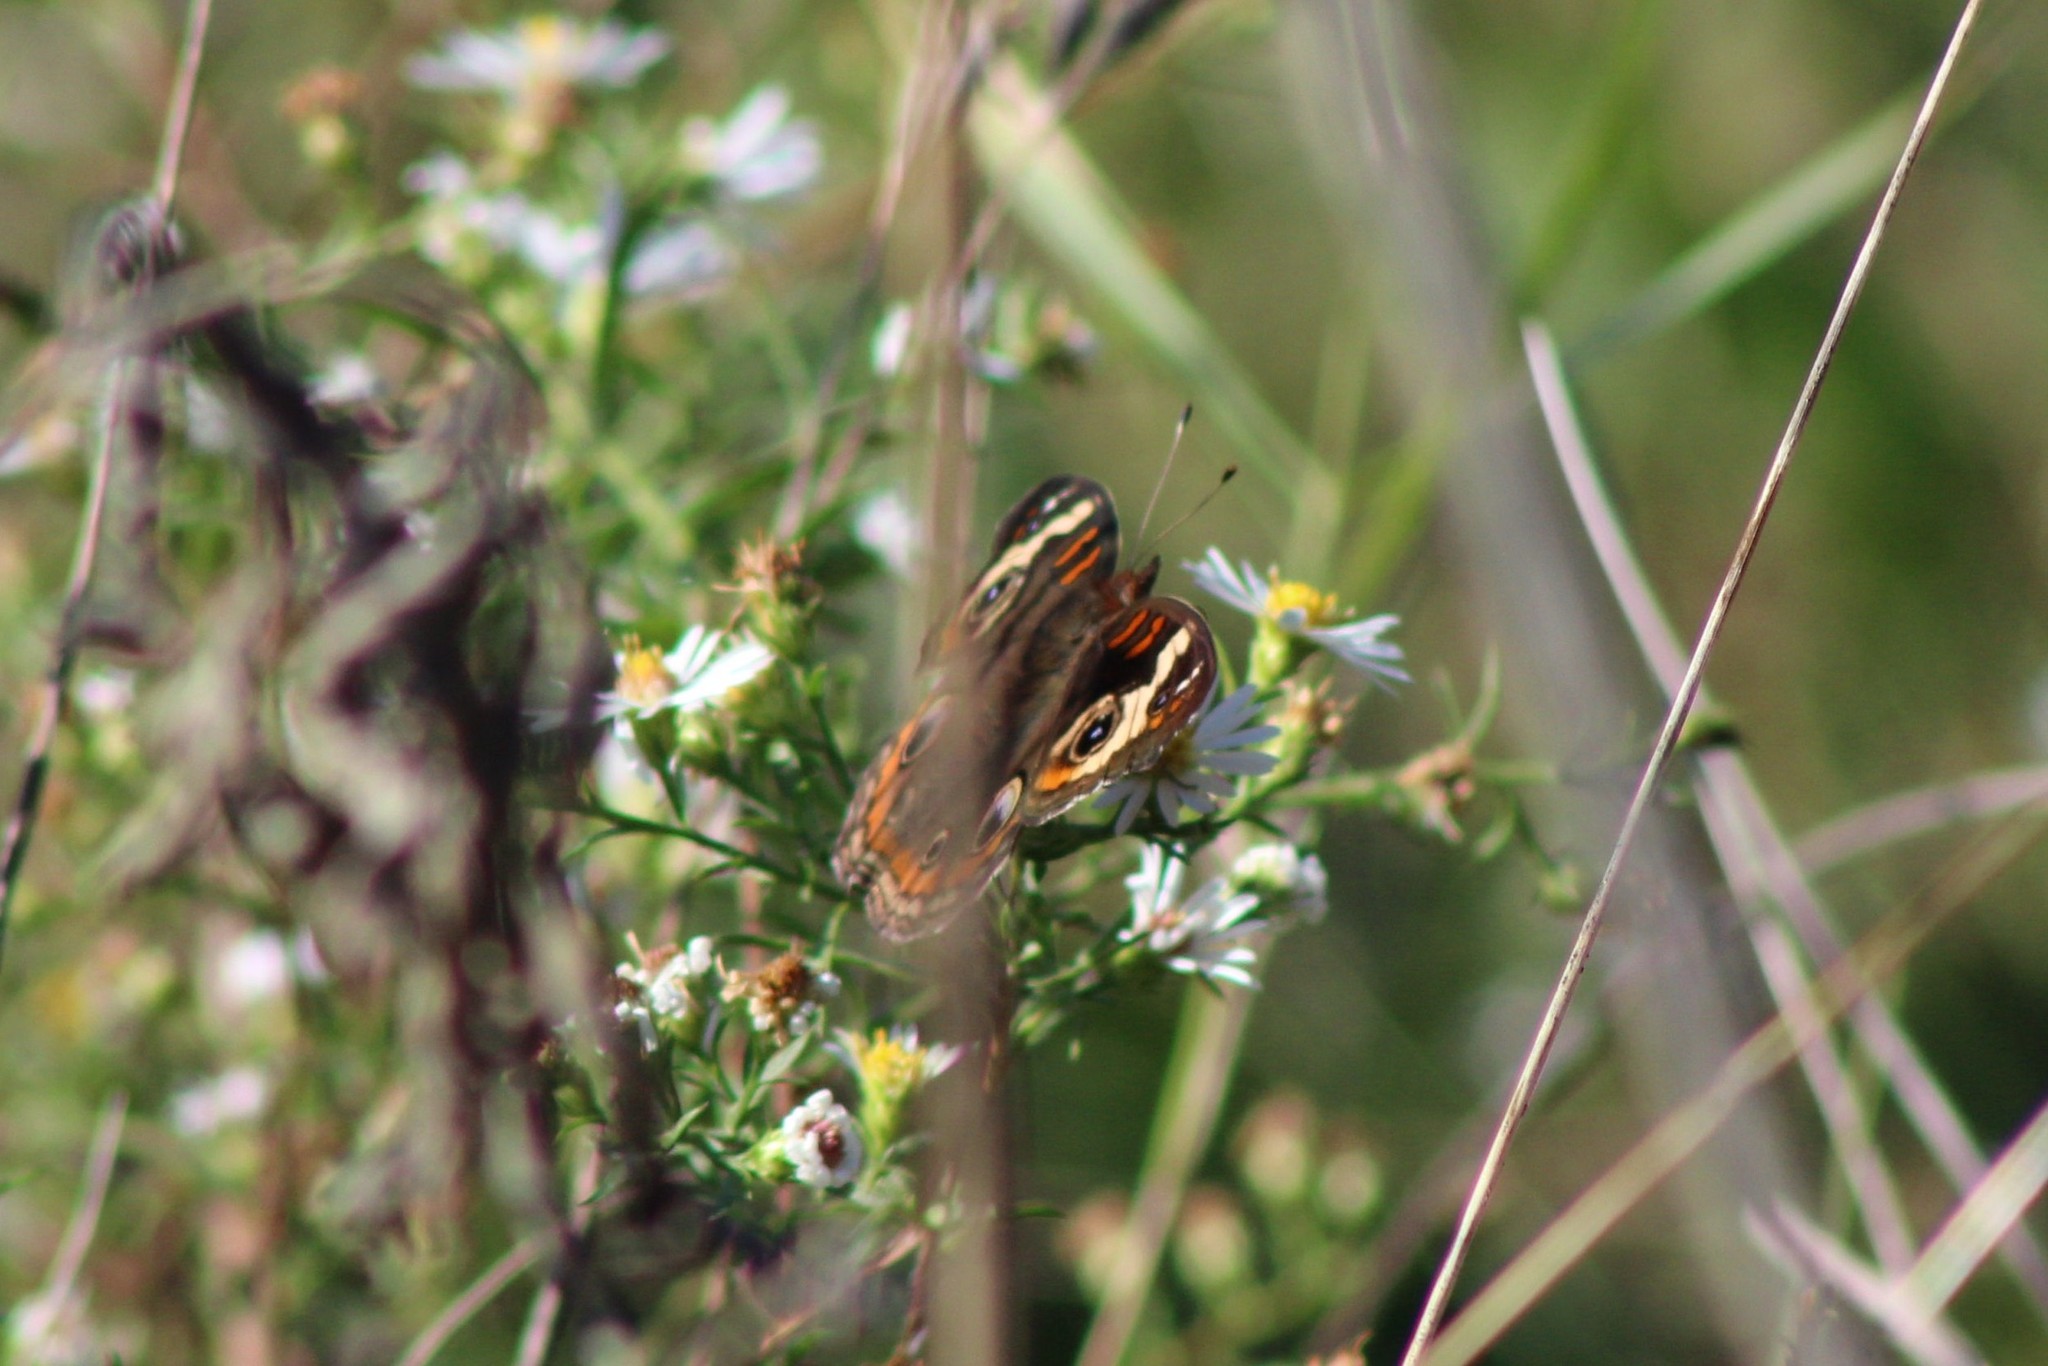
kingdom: Animalia
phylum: Arthropoda
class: Insecta
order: Lepidoptera
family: Nymphalidae
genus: Junonia
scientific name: Junonia coenia
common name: Common buckeye
